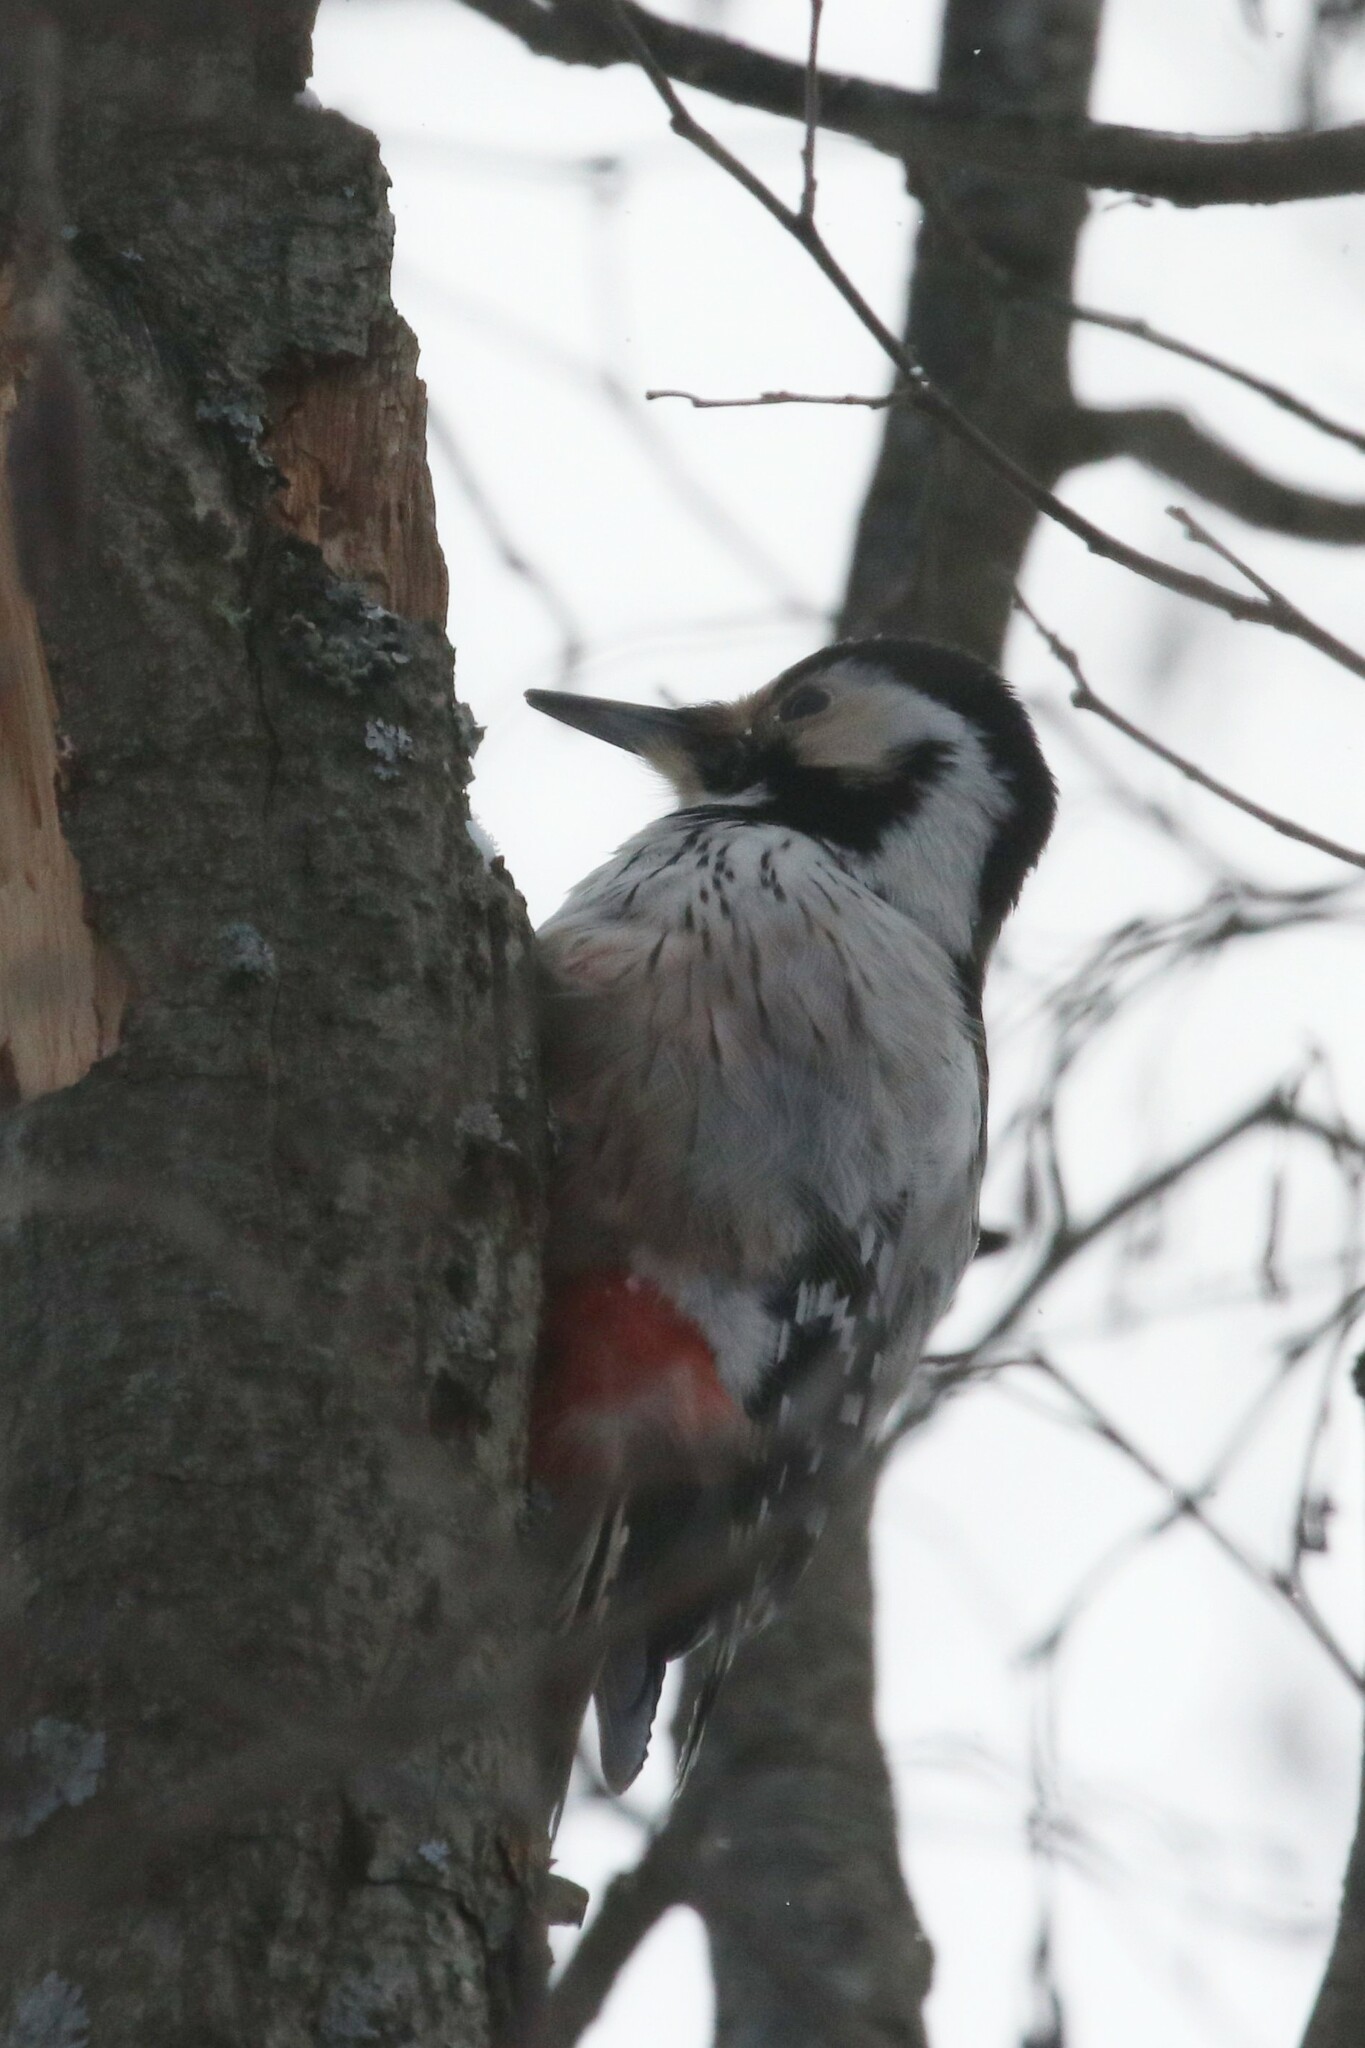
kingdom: Animalia
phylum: Chordata
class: Aves
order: Piciformes
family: Picidae
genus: Dendrocopos
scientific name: Dendrocopos leucotos
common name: White-backed woodpecker
